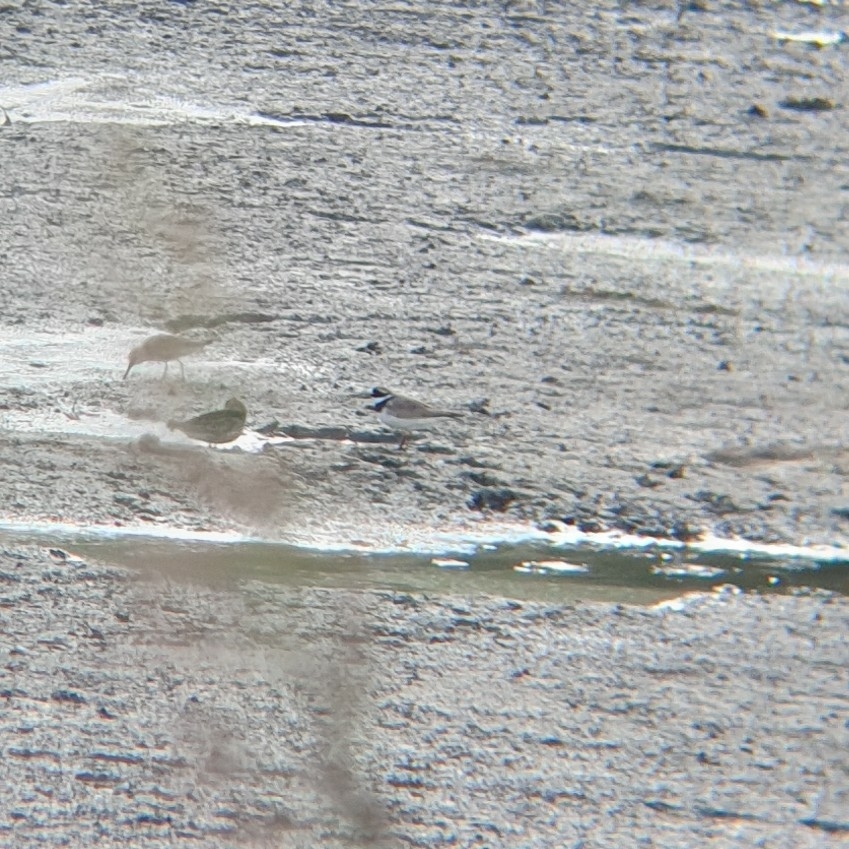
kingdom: Animalia
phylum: Chordata
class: Aves
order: Charadriiformes
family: Charadriidae
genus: Charadrius
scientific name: Charadrius hiaticula
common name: Common ringed plover
